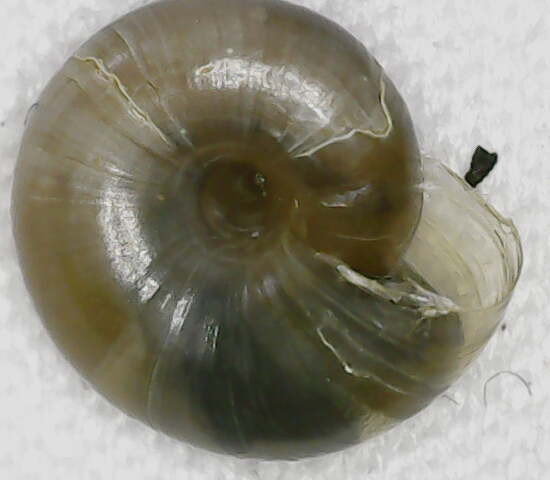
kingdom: Animalia
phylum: Mollusca
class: Gastropoda
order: Stylommatophora
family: Oxychilidae
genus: Oxychilus
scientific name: Oxychilus alliarius
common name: Garlic glass-snail
